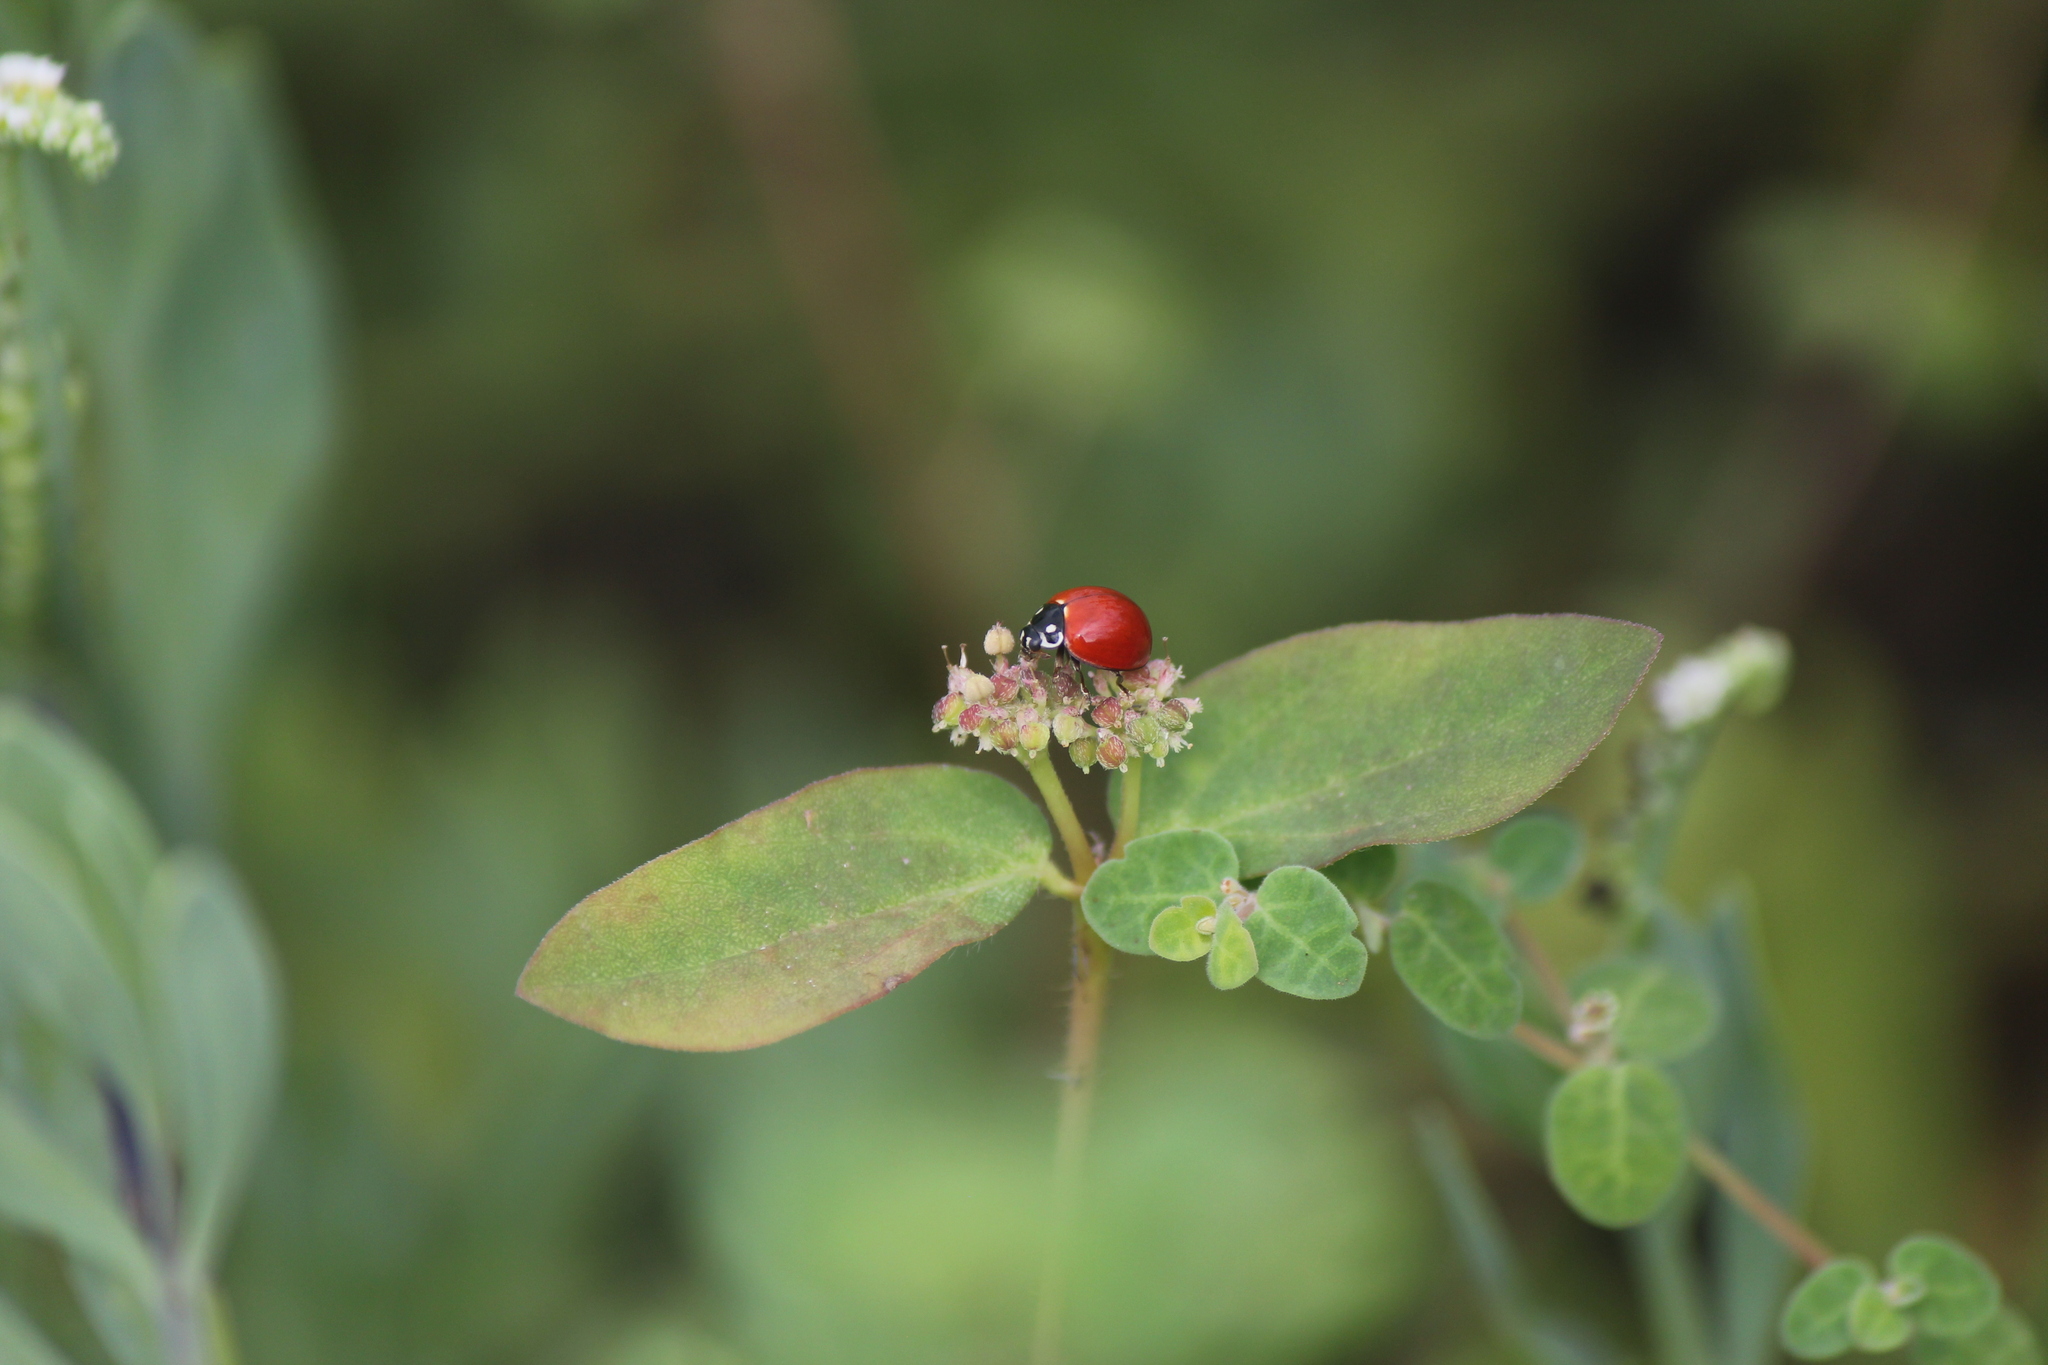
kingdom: Animalia
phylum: Arthropoda
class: Insecta
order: Coleoptera
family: Coccinellidae
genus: Cycloneda
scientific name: Cycloneda sanguinea
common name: Ladybird beetle
